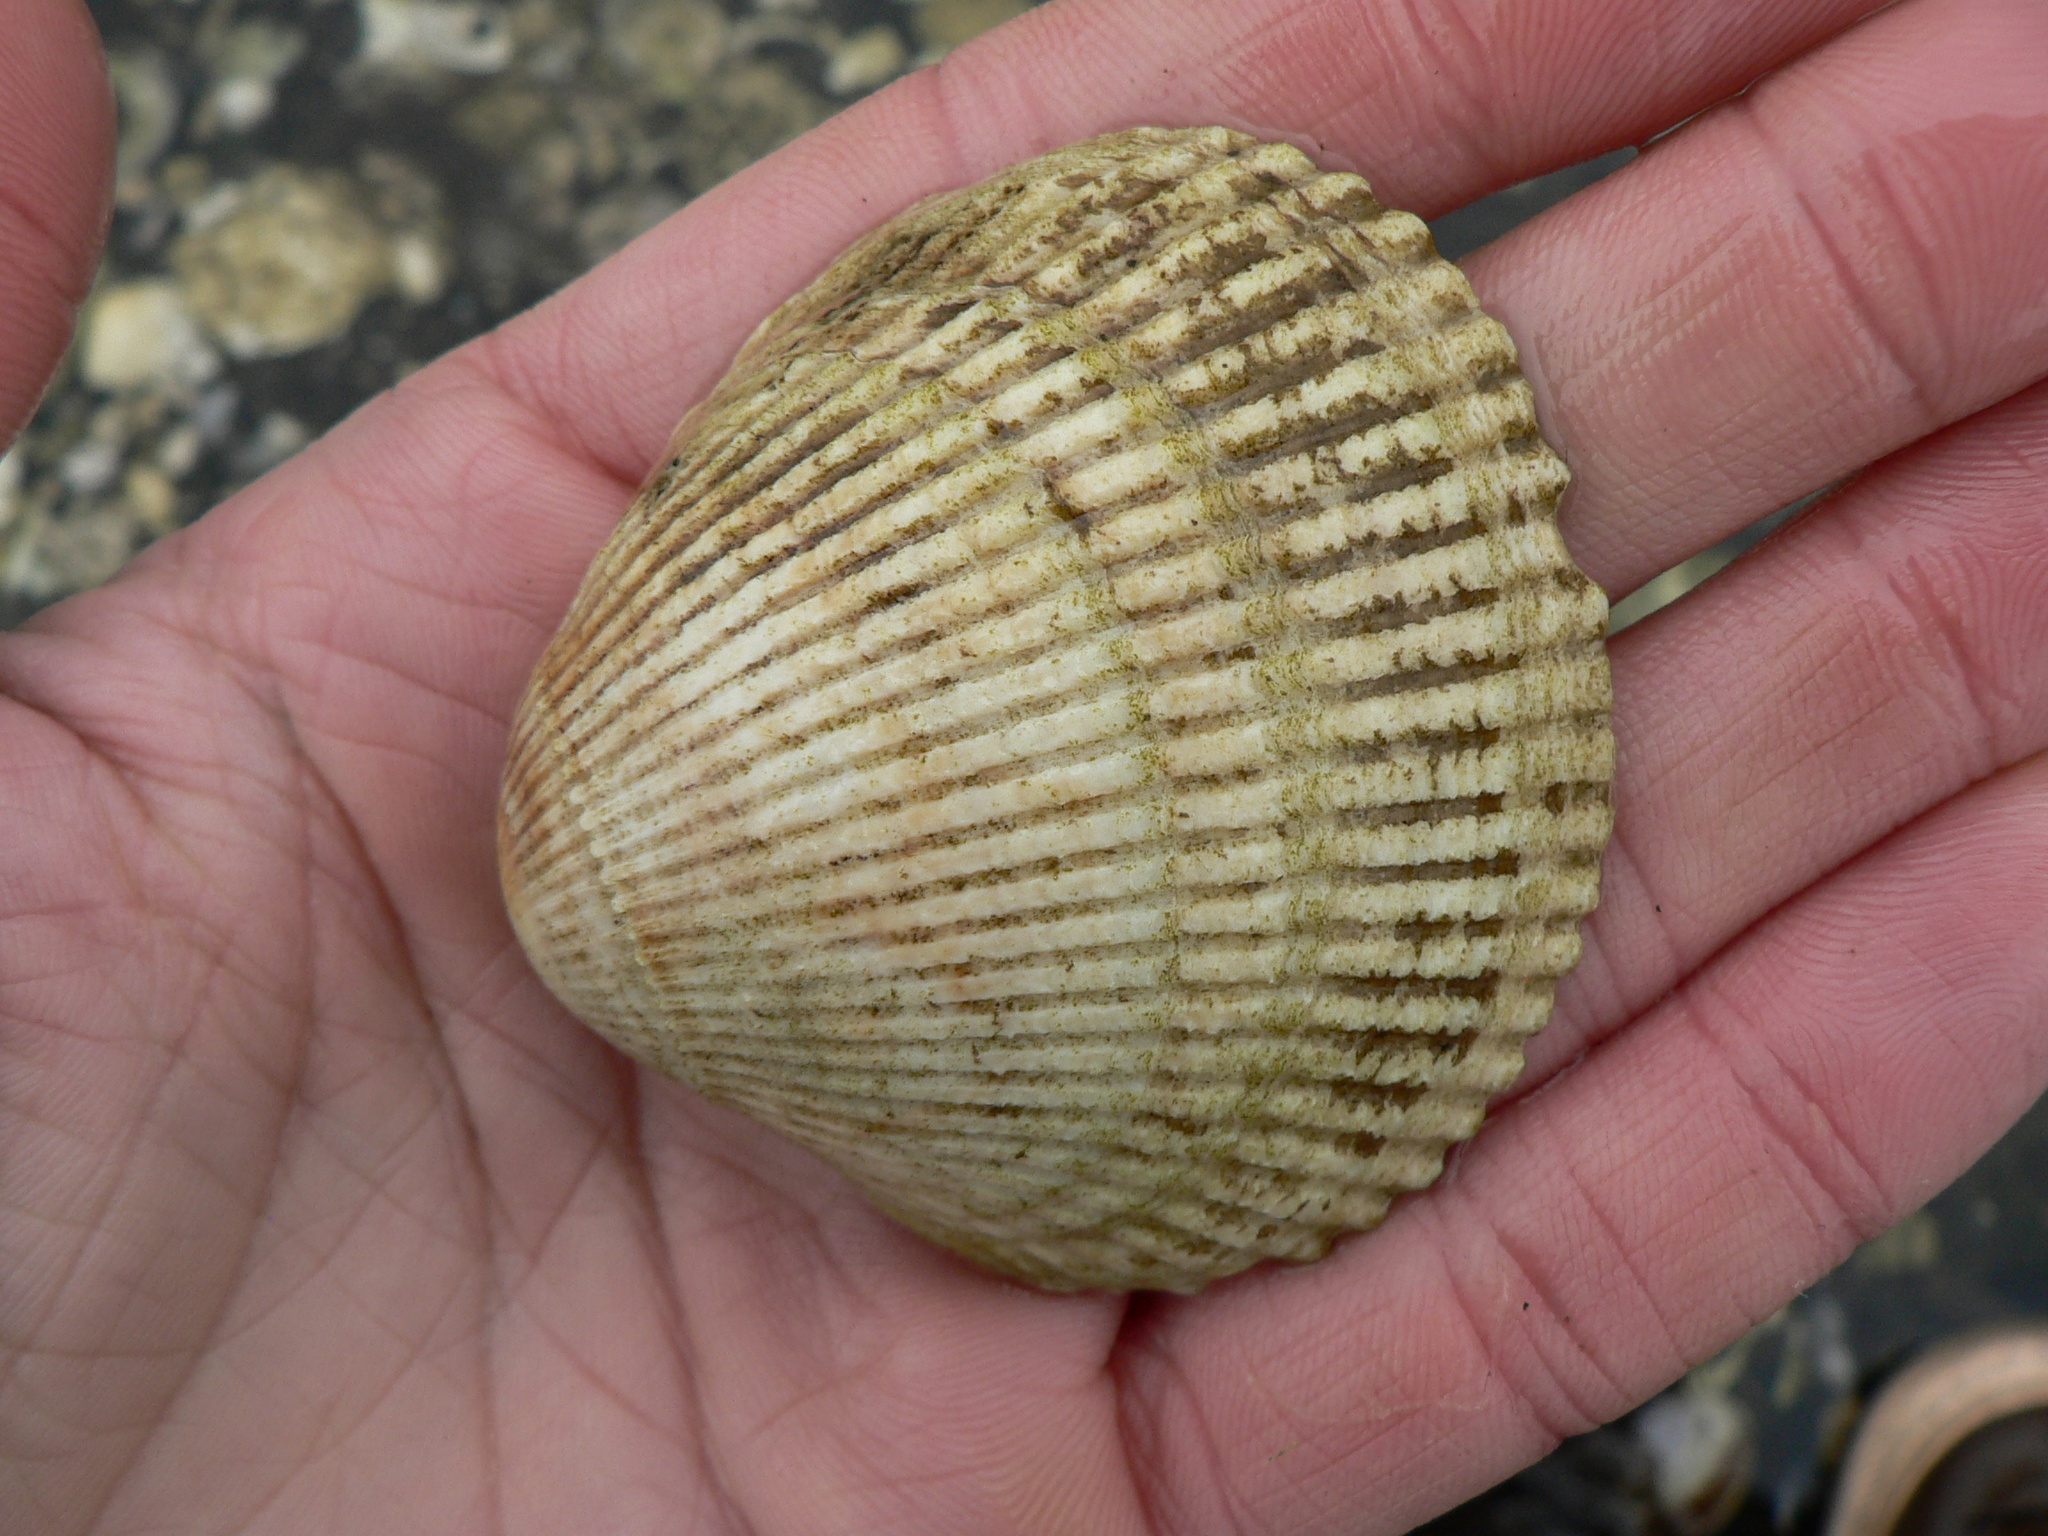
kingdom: Animalia
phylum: Mollusca
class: Bivalvia
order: Cardiida
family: Cardiidae
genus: Clinocardium
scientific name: Clinocardium nuttallii
